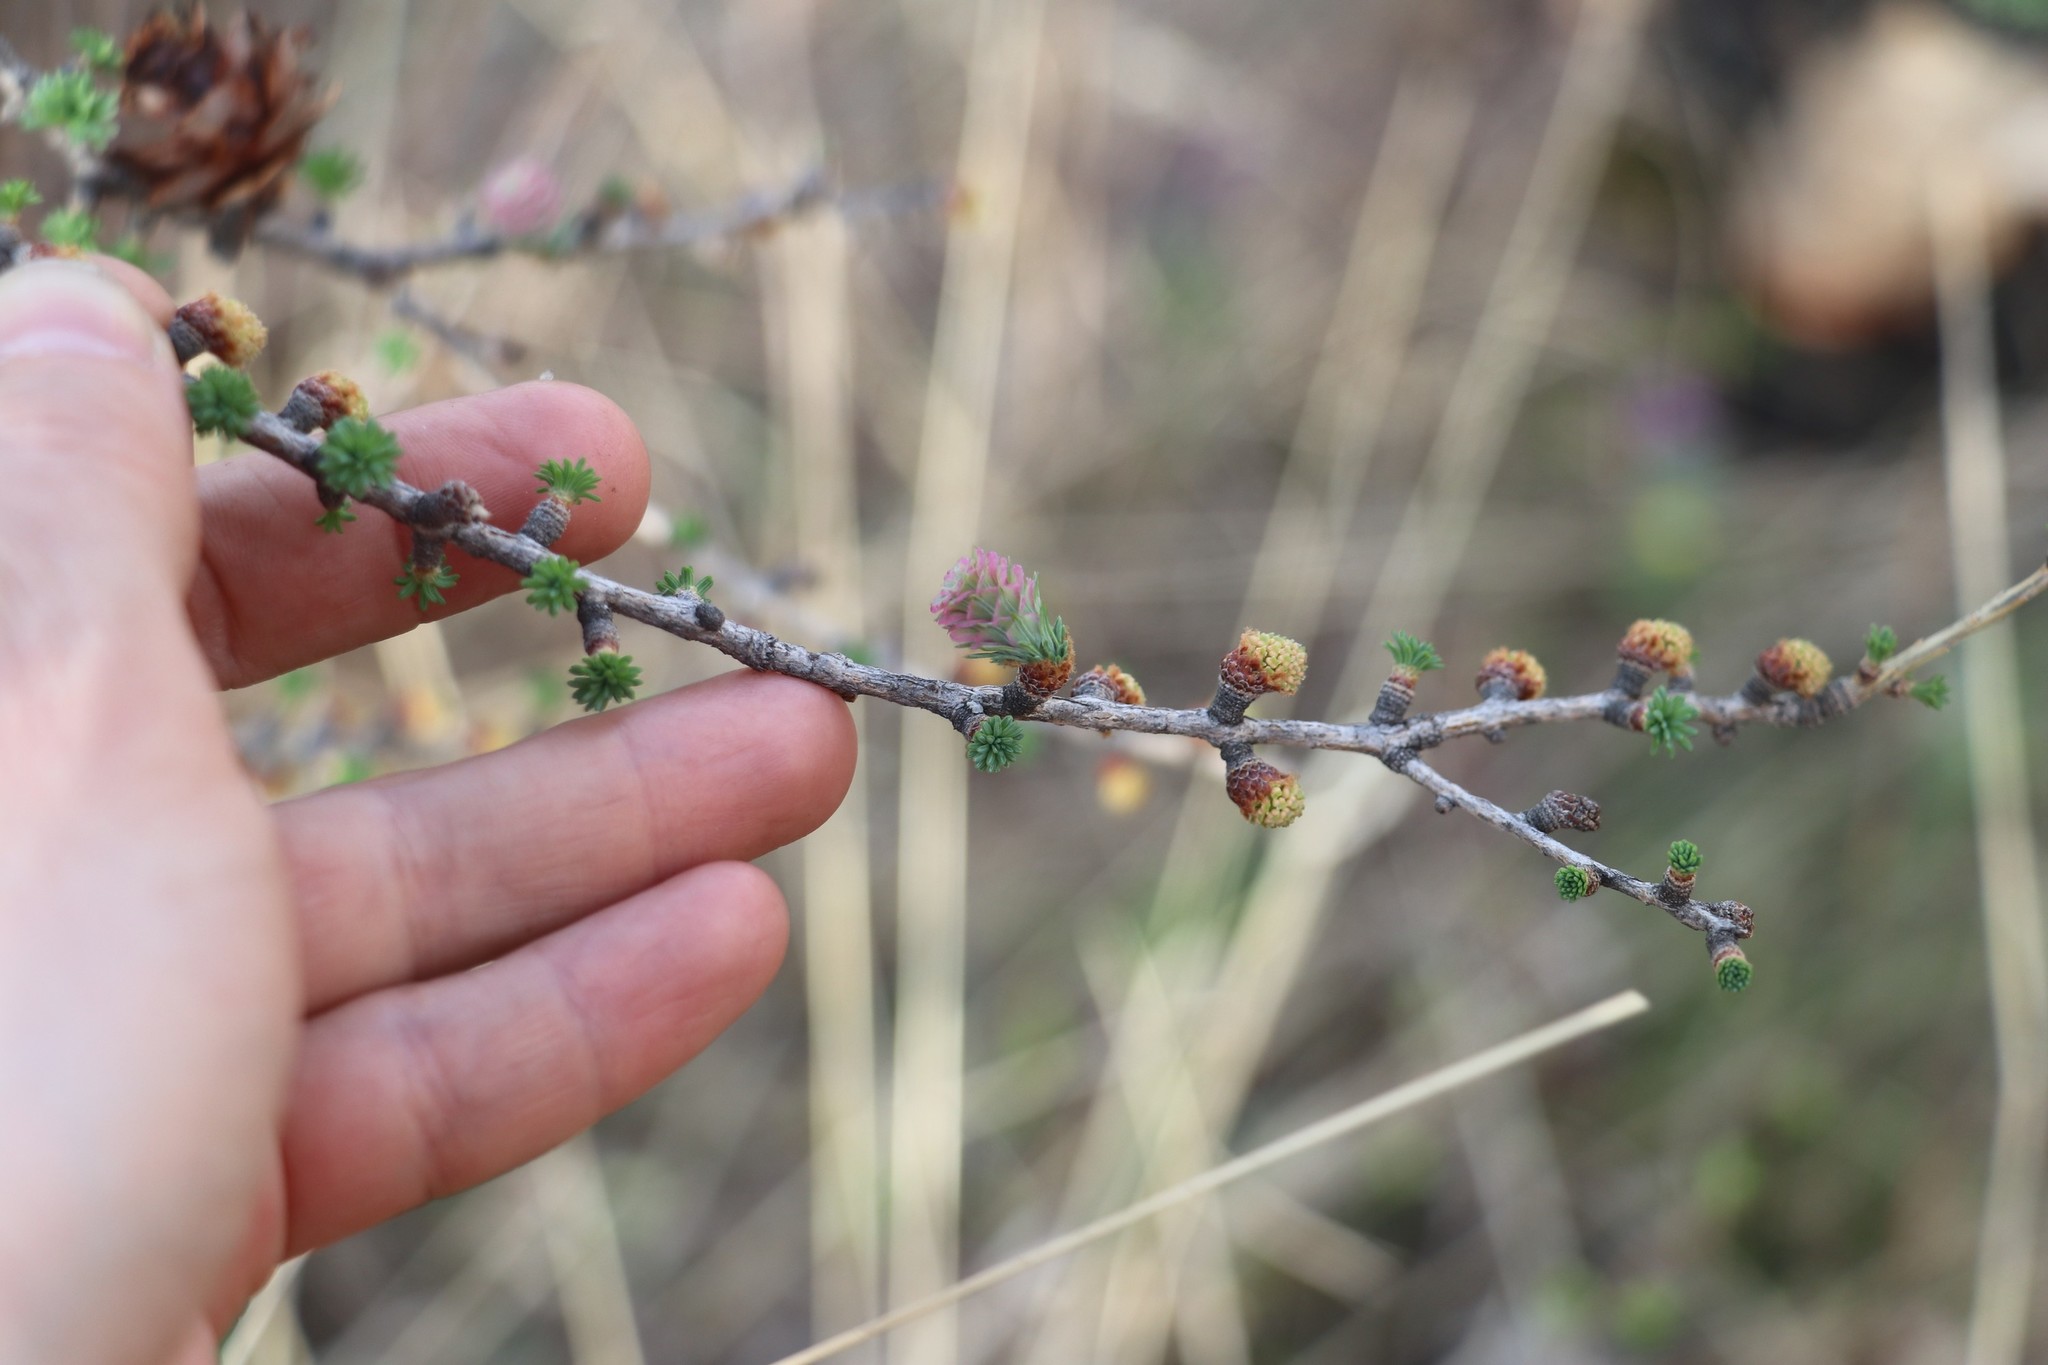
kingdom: Plantae
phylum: Tracheophyta
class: Pinopsida
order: Pinales
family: Pinaceae
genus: Larix
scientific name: Larix sibirica
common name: Siberian larch
